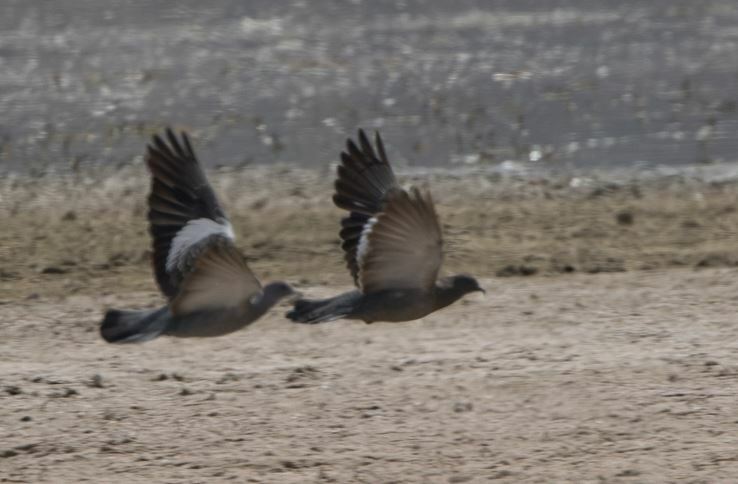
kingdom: Animalia
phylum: Chordata
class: Aves
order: Columbiformes
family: Columbidae
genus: Patagioenas
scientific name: Patagioenas maculosa
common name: Spot-winged pigeon
